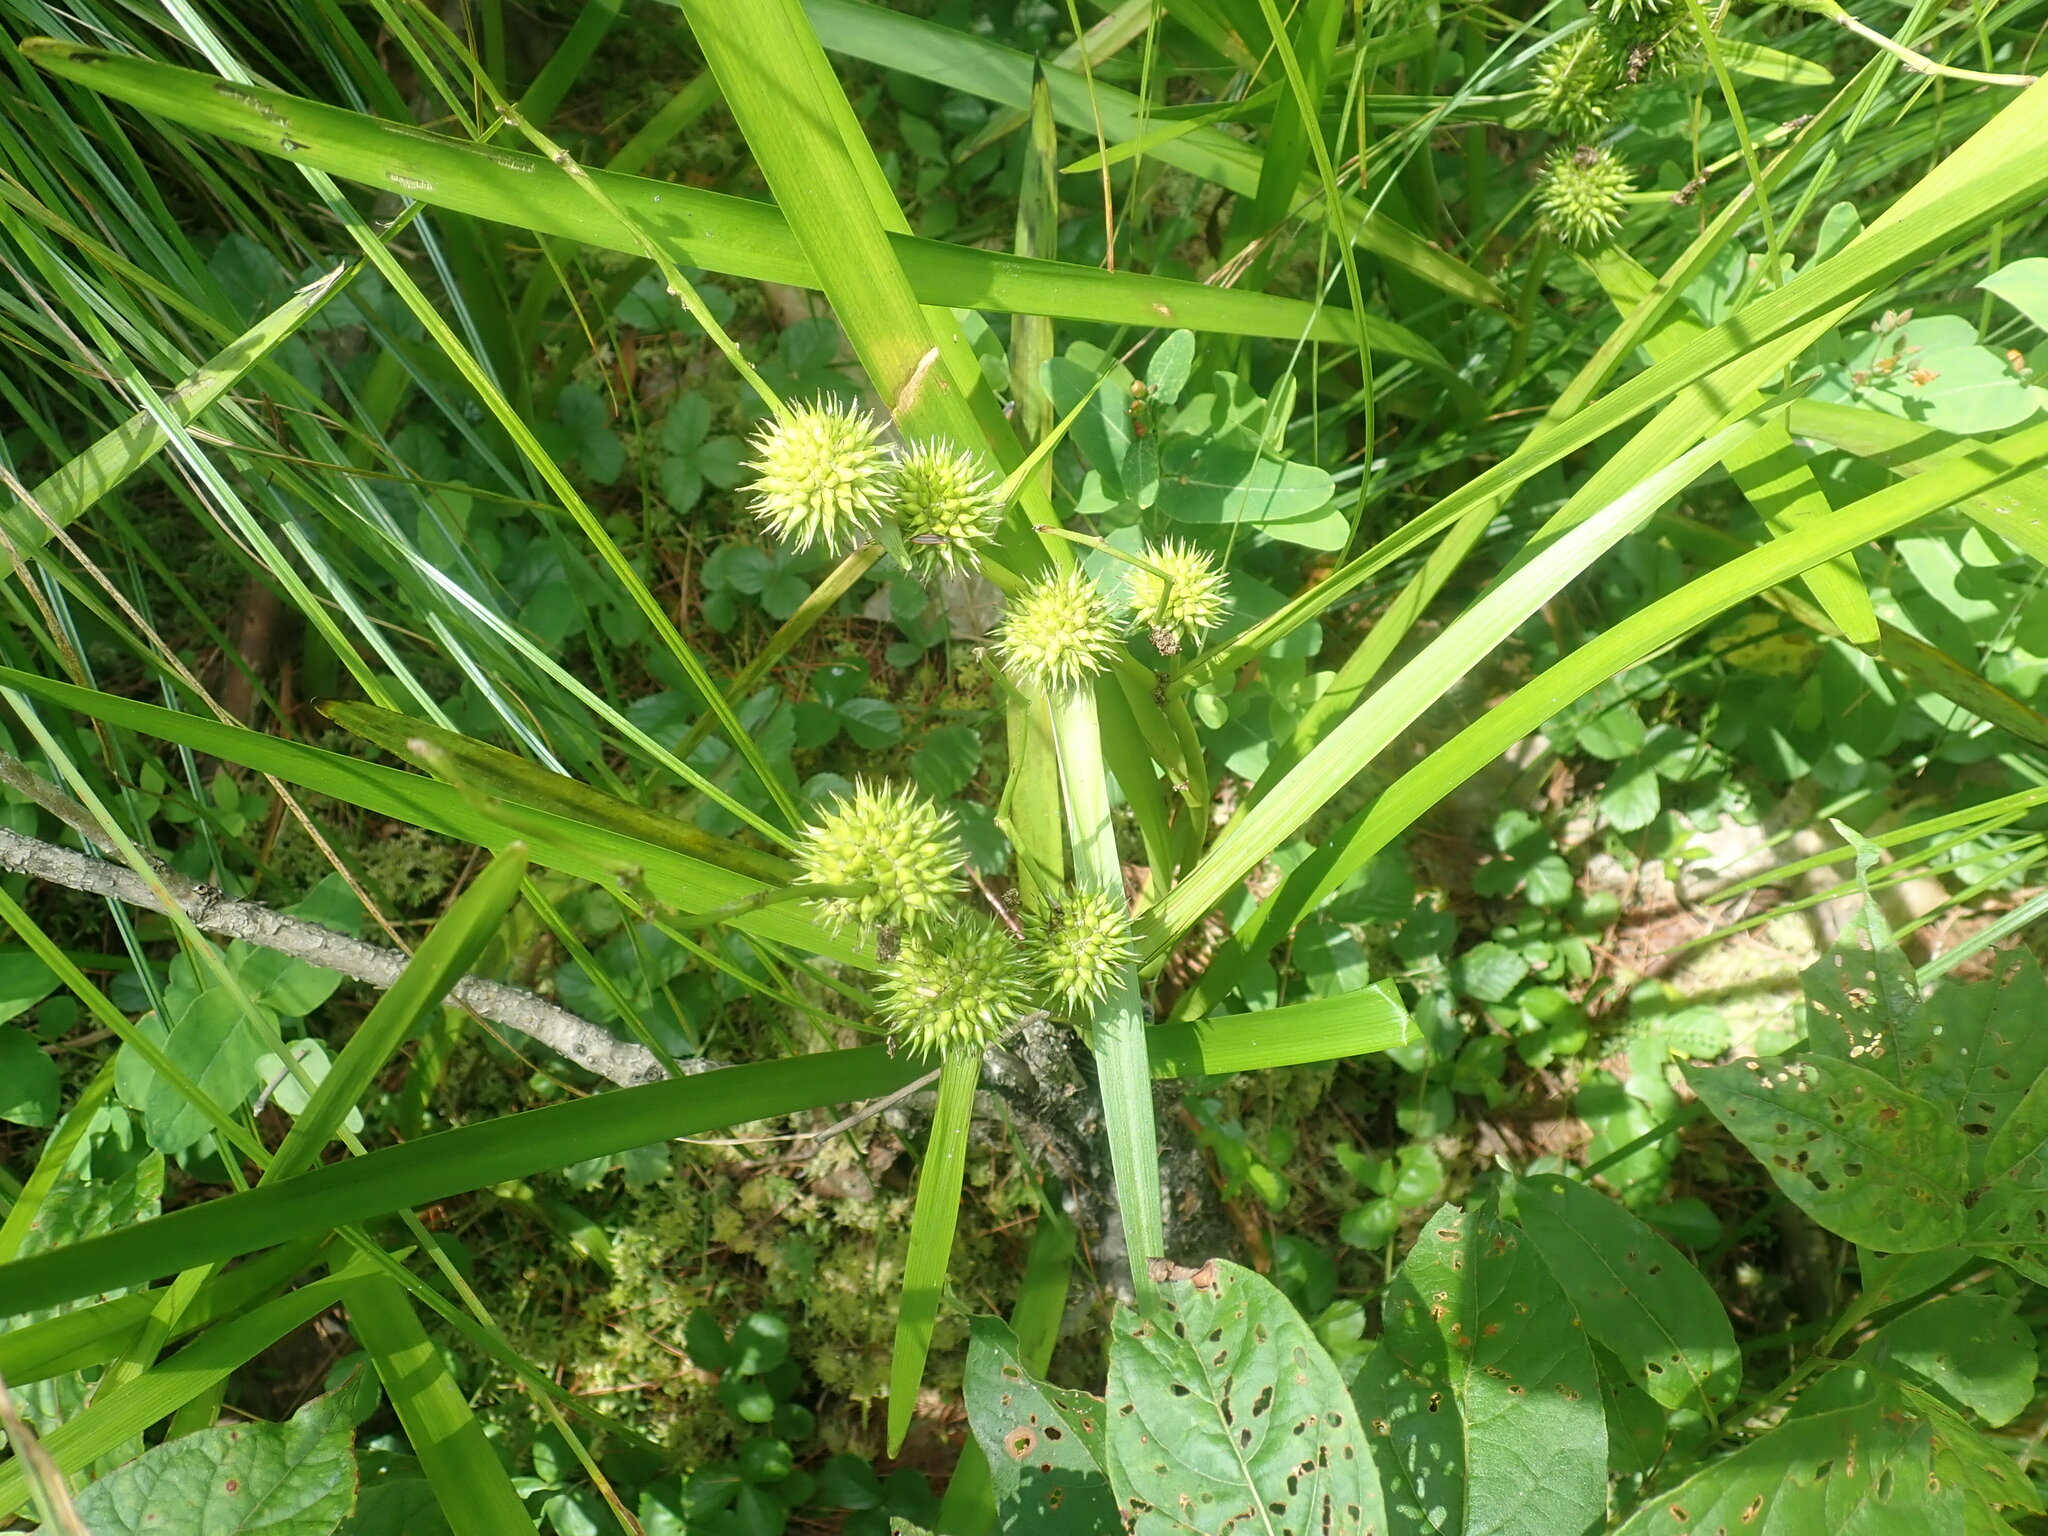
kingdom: Plantae
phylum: Tracheophyta
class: Liliopsida
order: Poales
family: Typhaceae
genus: Sparganium
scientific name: Sparganium
